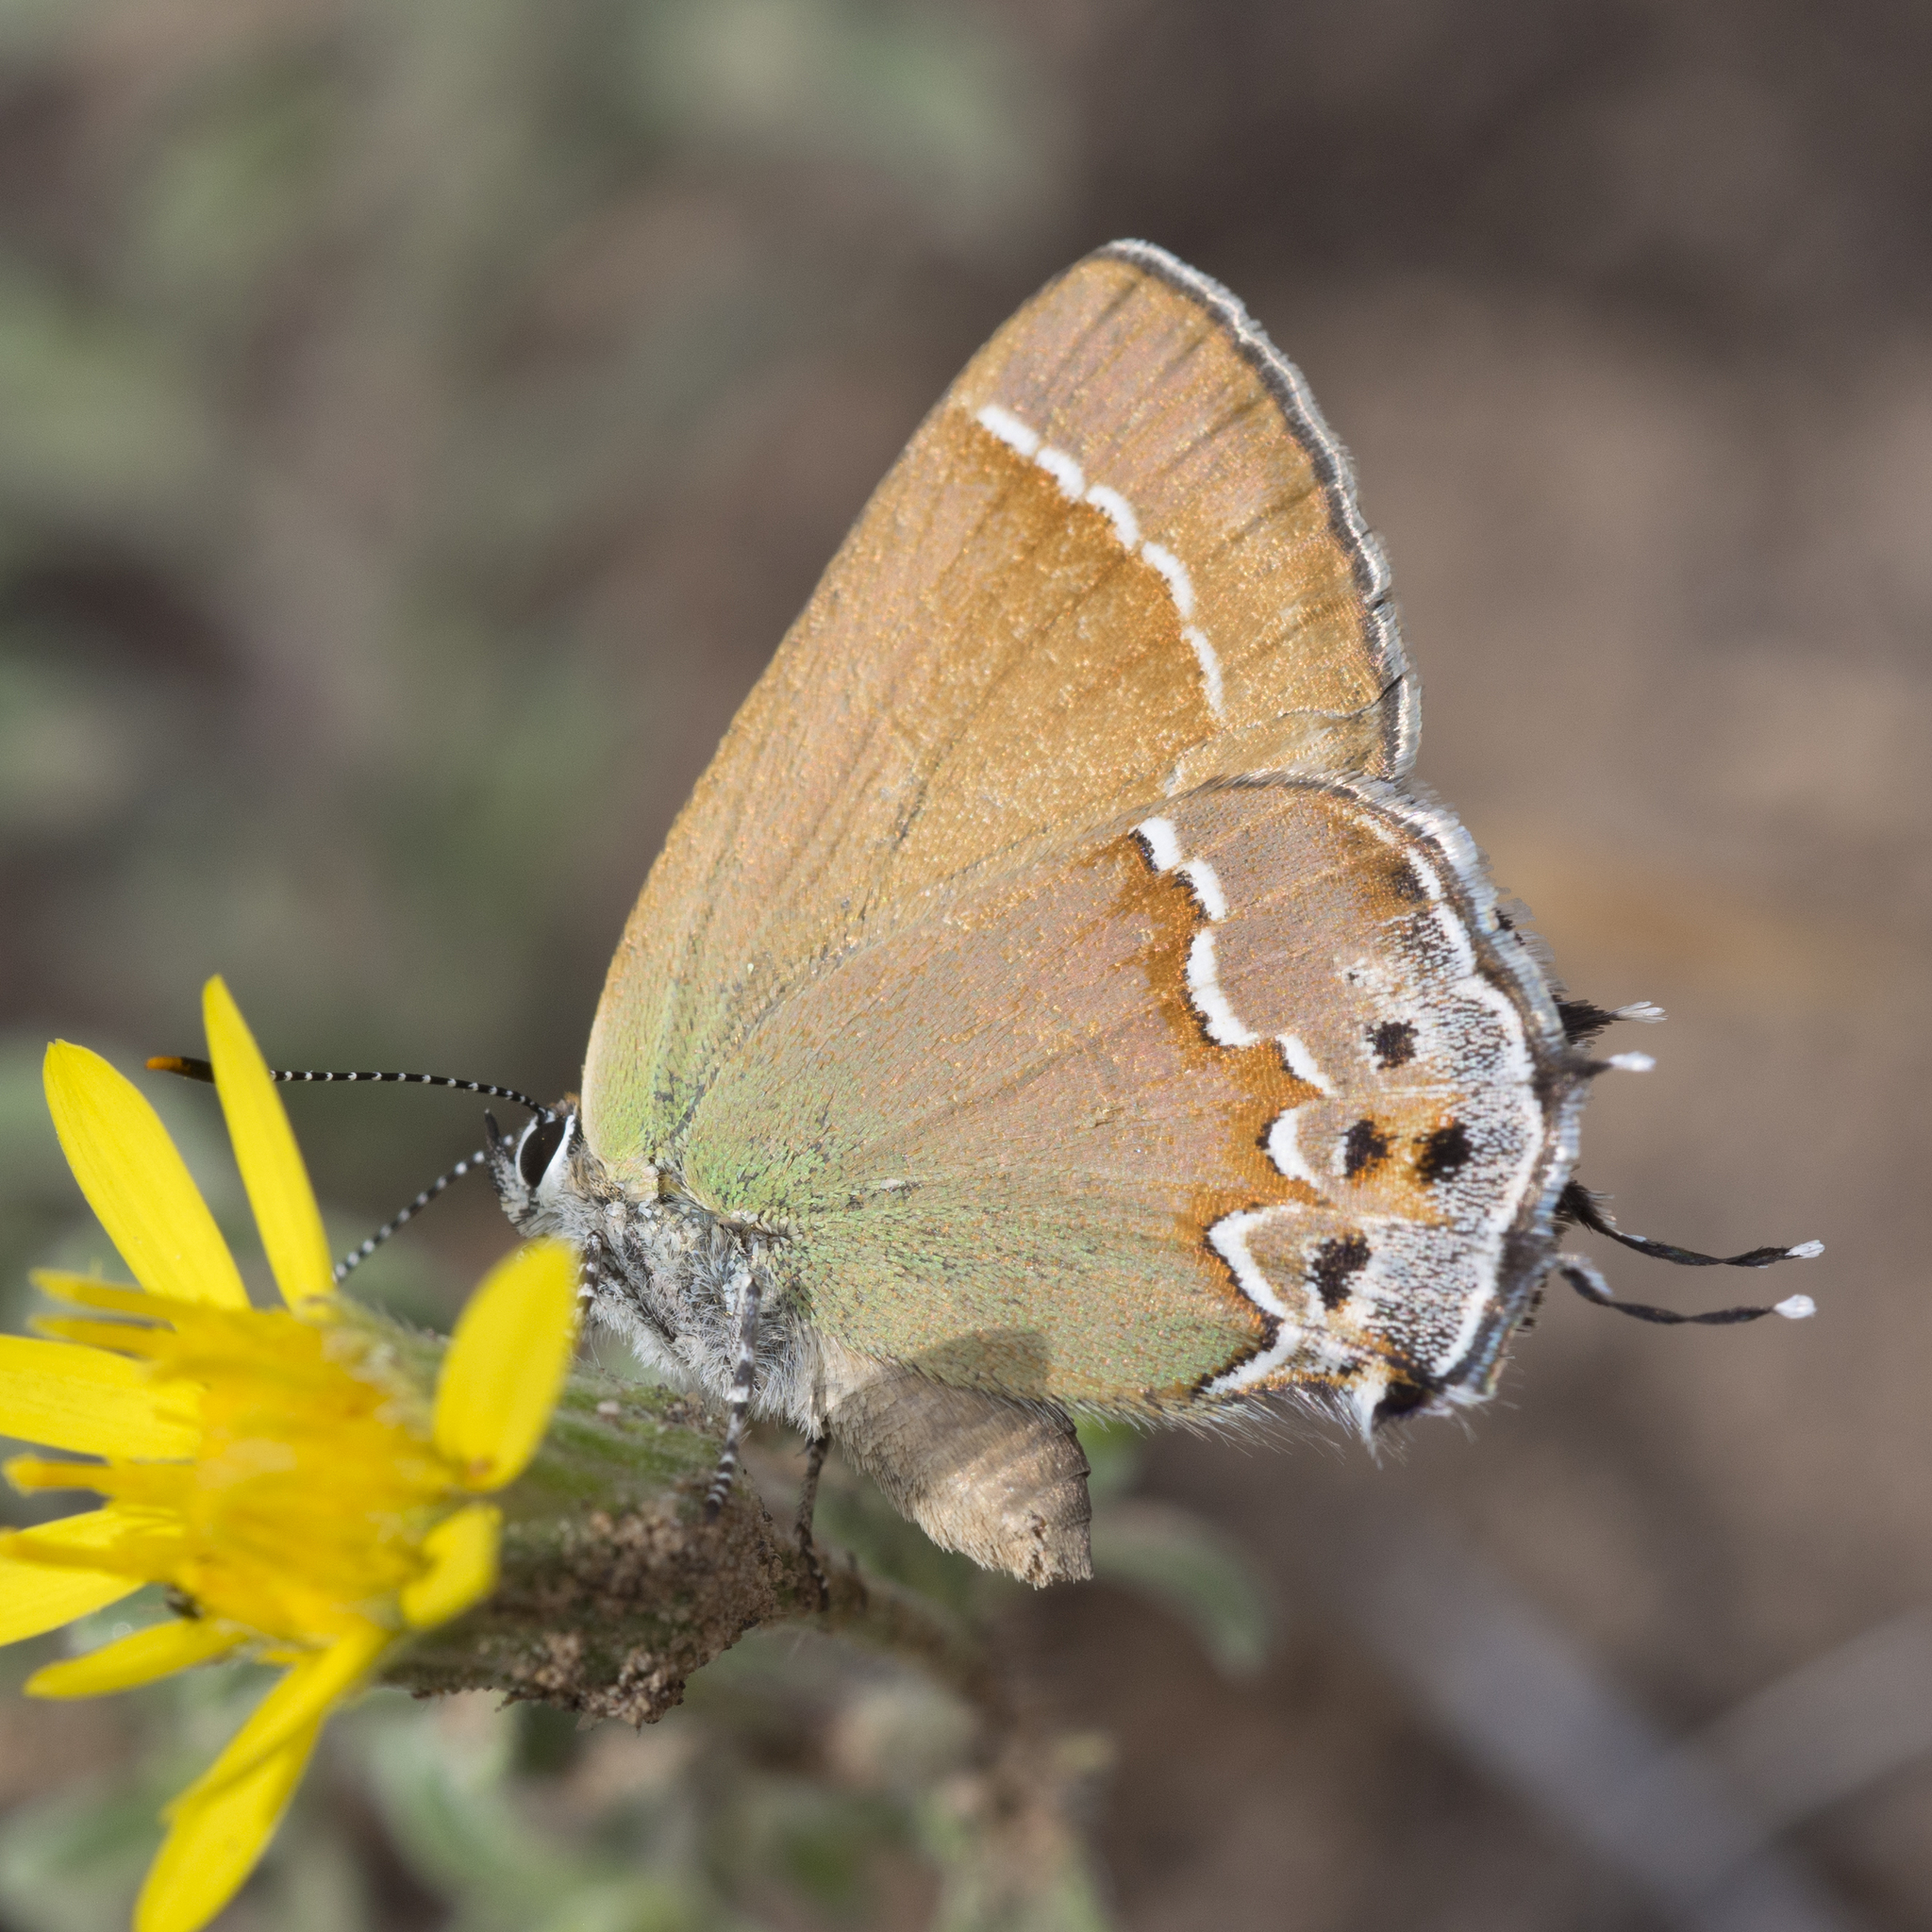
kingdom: Animalia
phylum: Arthropoda
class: Insecta
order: Lepidoptera
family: Lycaenidae
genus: Mitoura
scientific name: Mitoura siva
